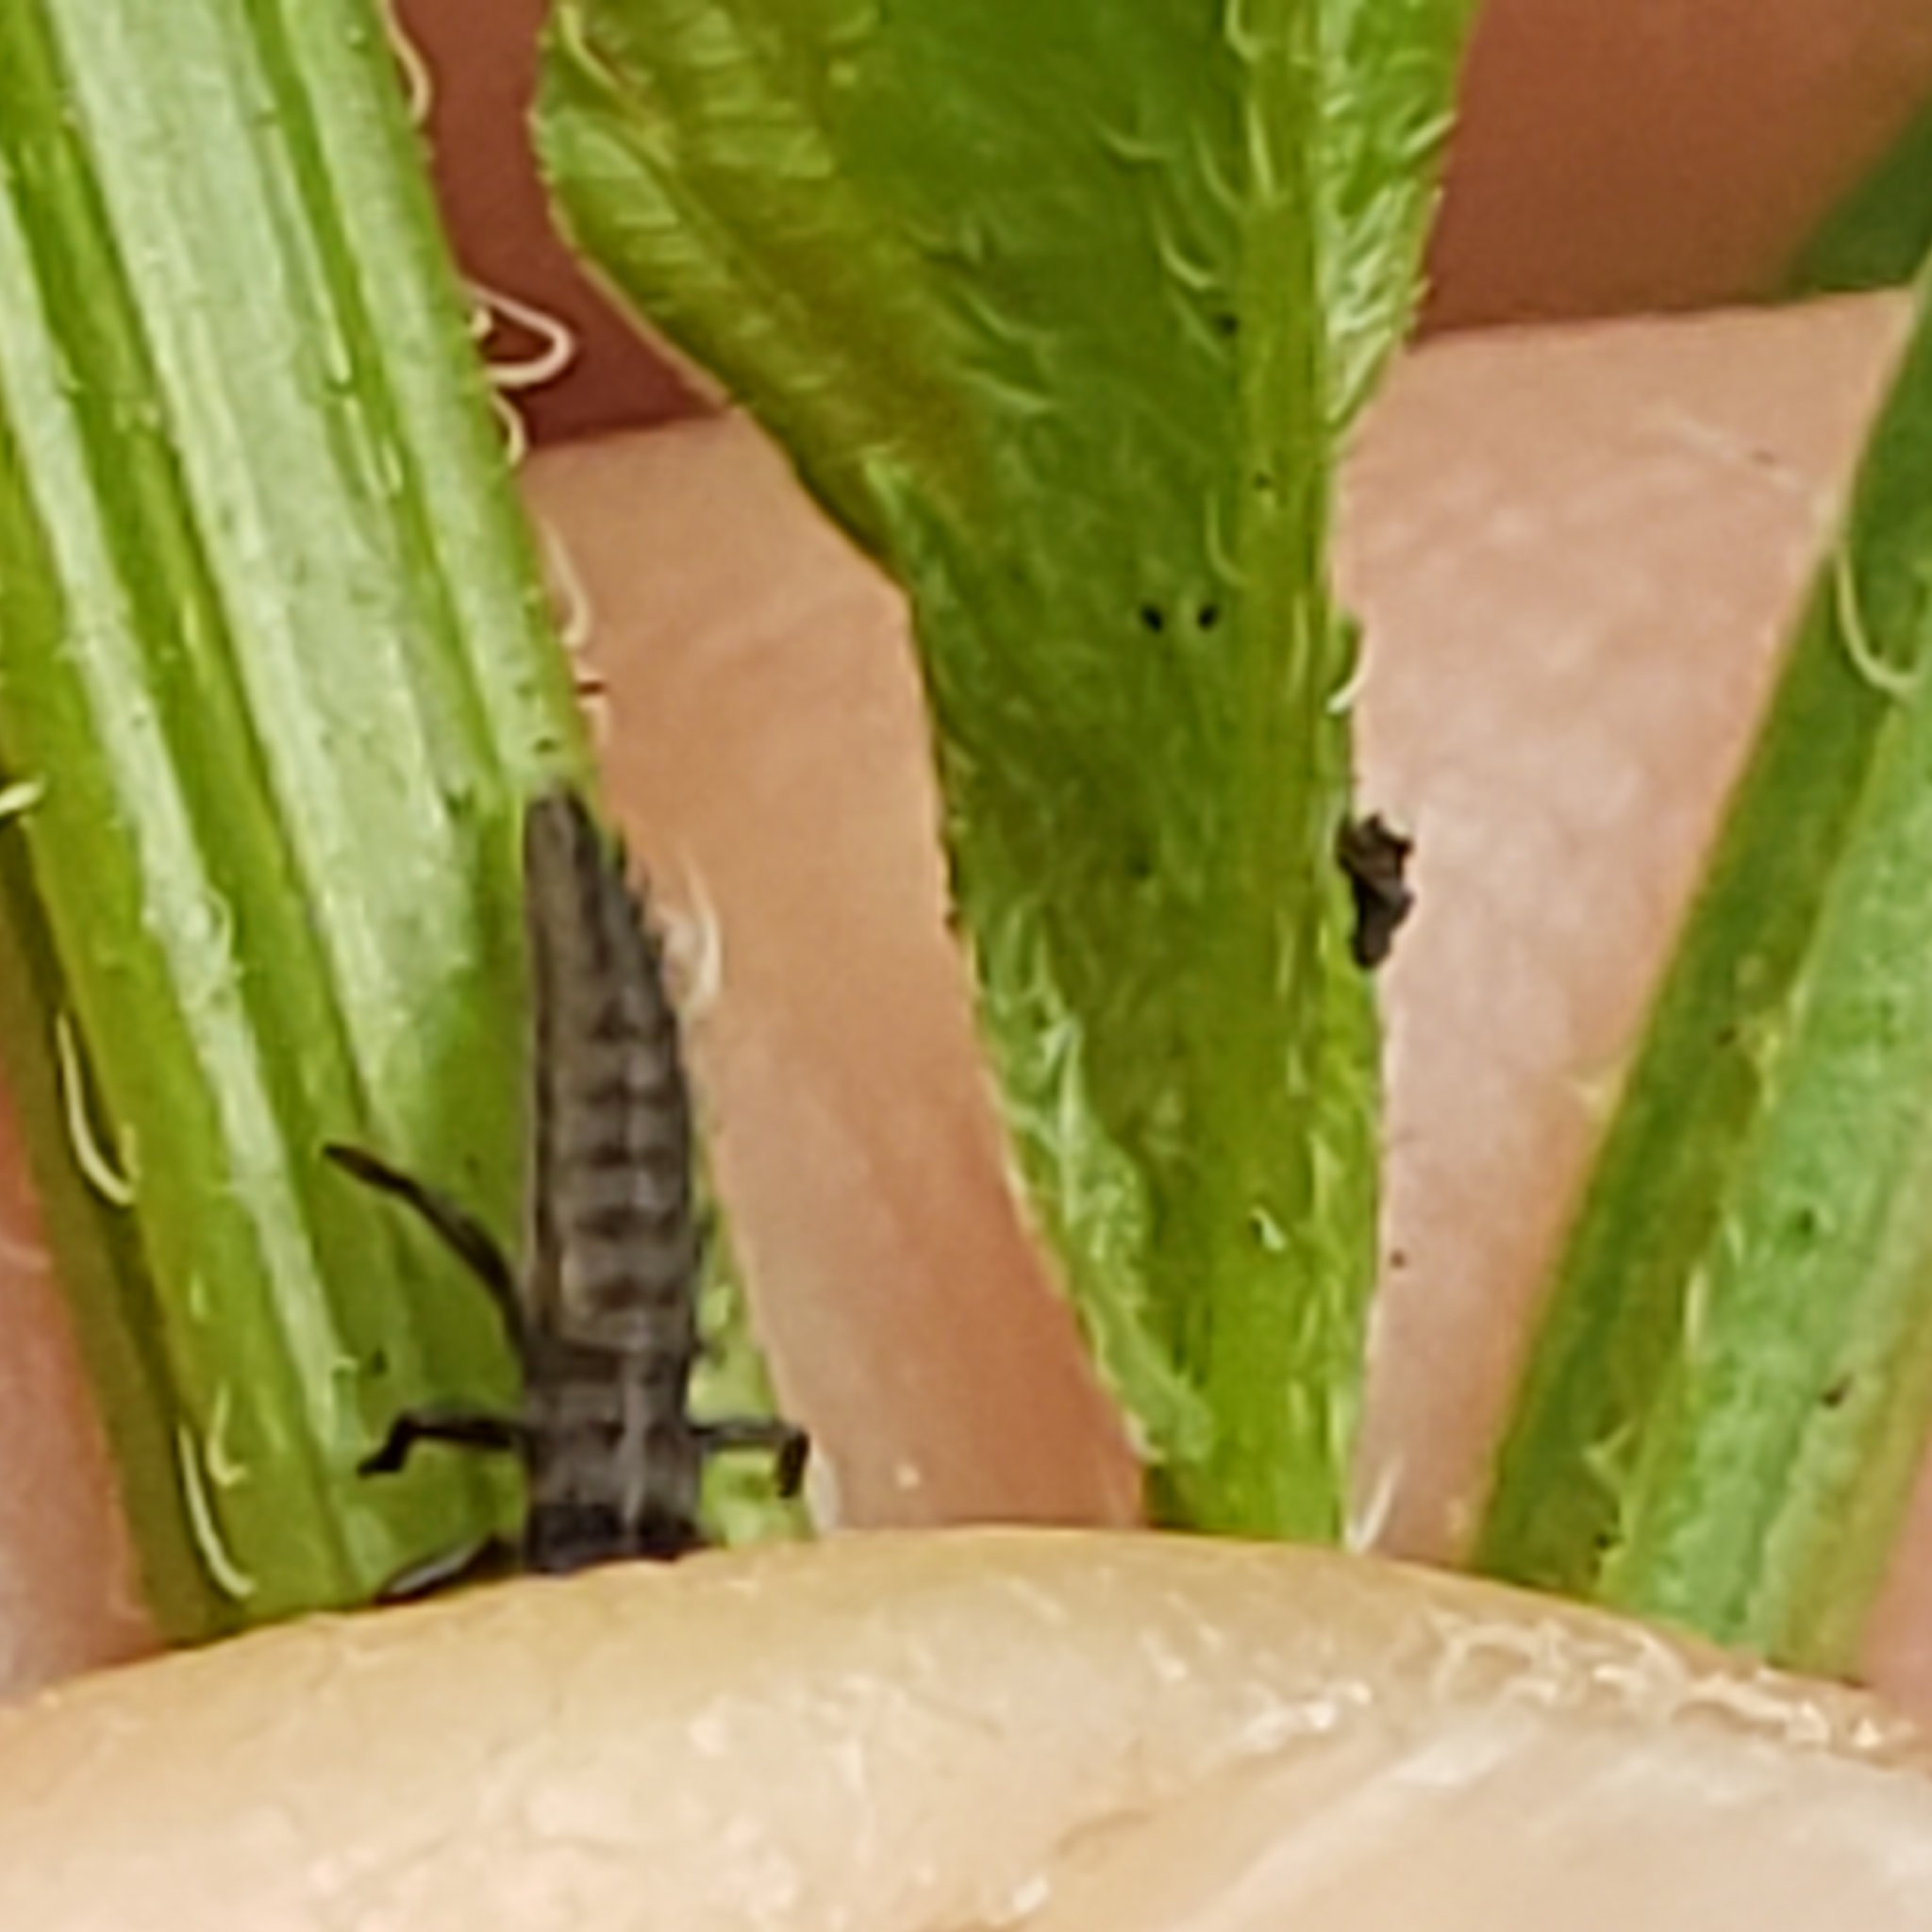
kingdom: Animalia
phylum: Arthropoda
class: Insecta
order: Coleoptera
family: Coccinellidae
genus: Harmonia
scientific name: Harmonia axyridis
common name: Harlequin ladybird
